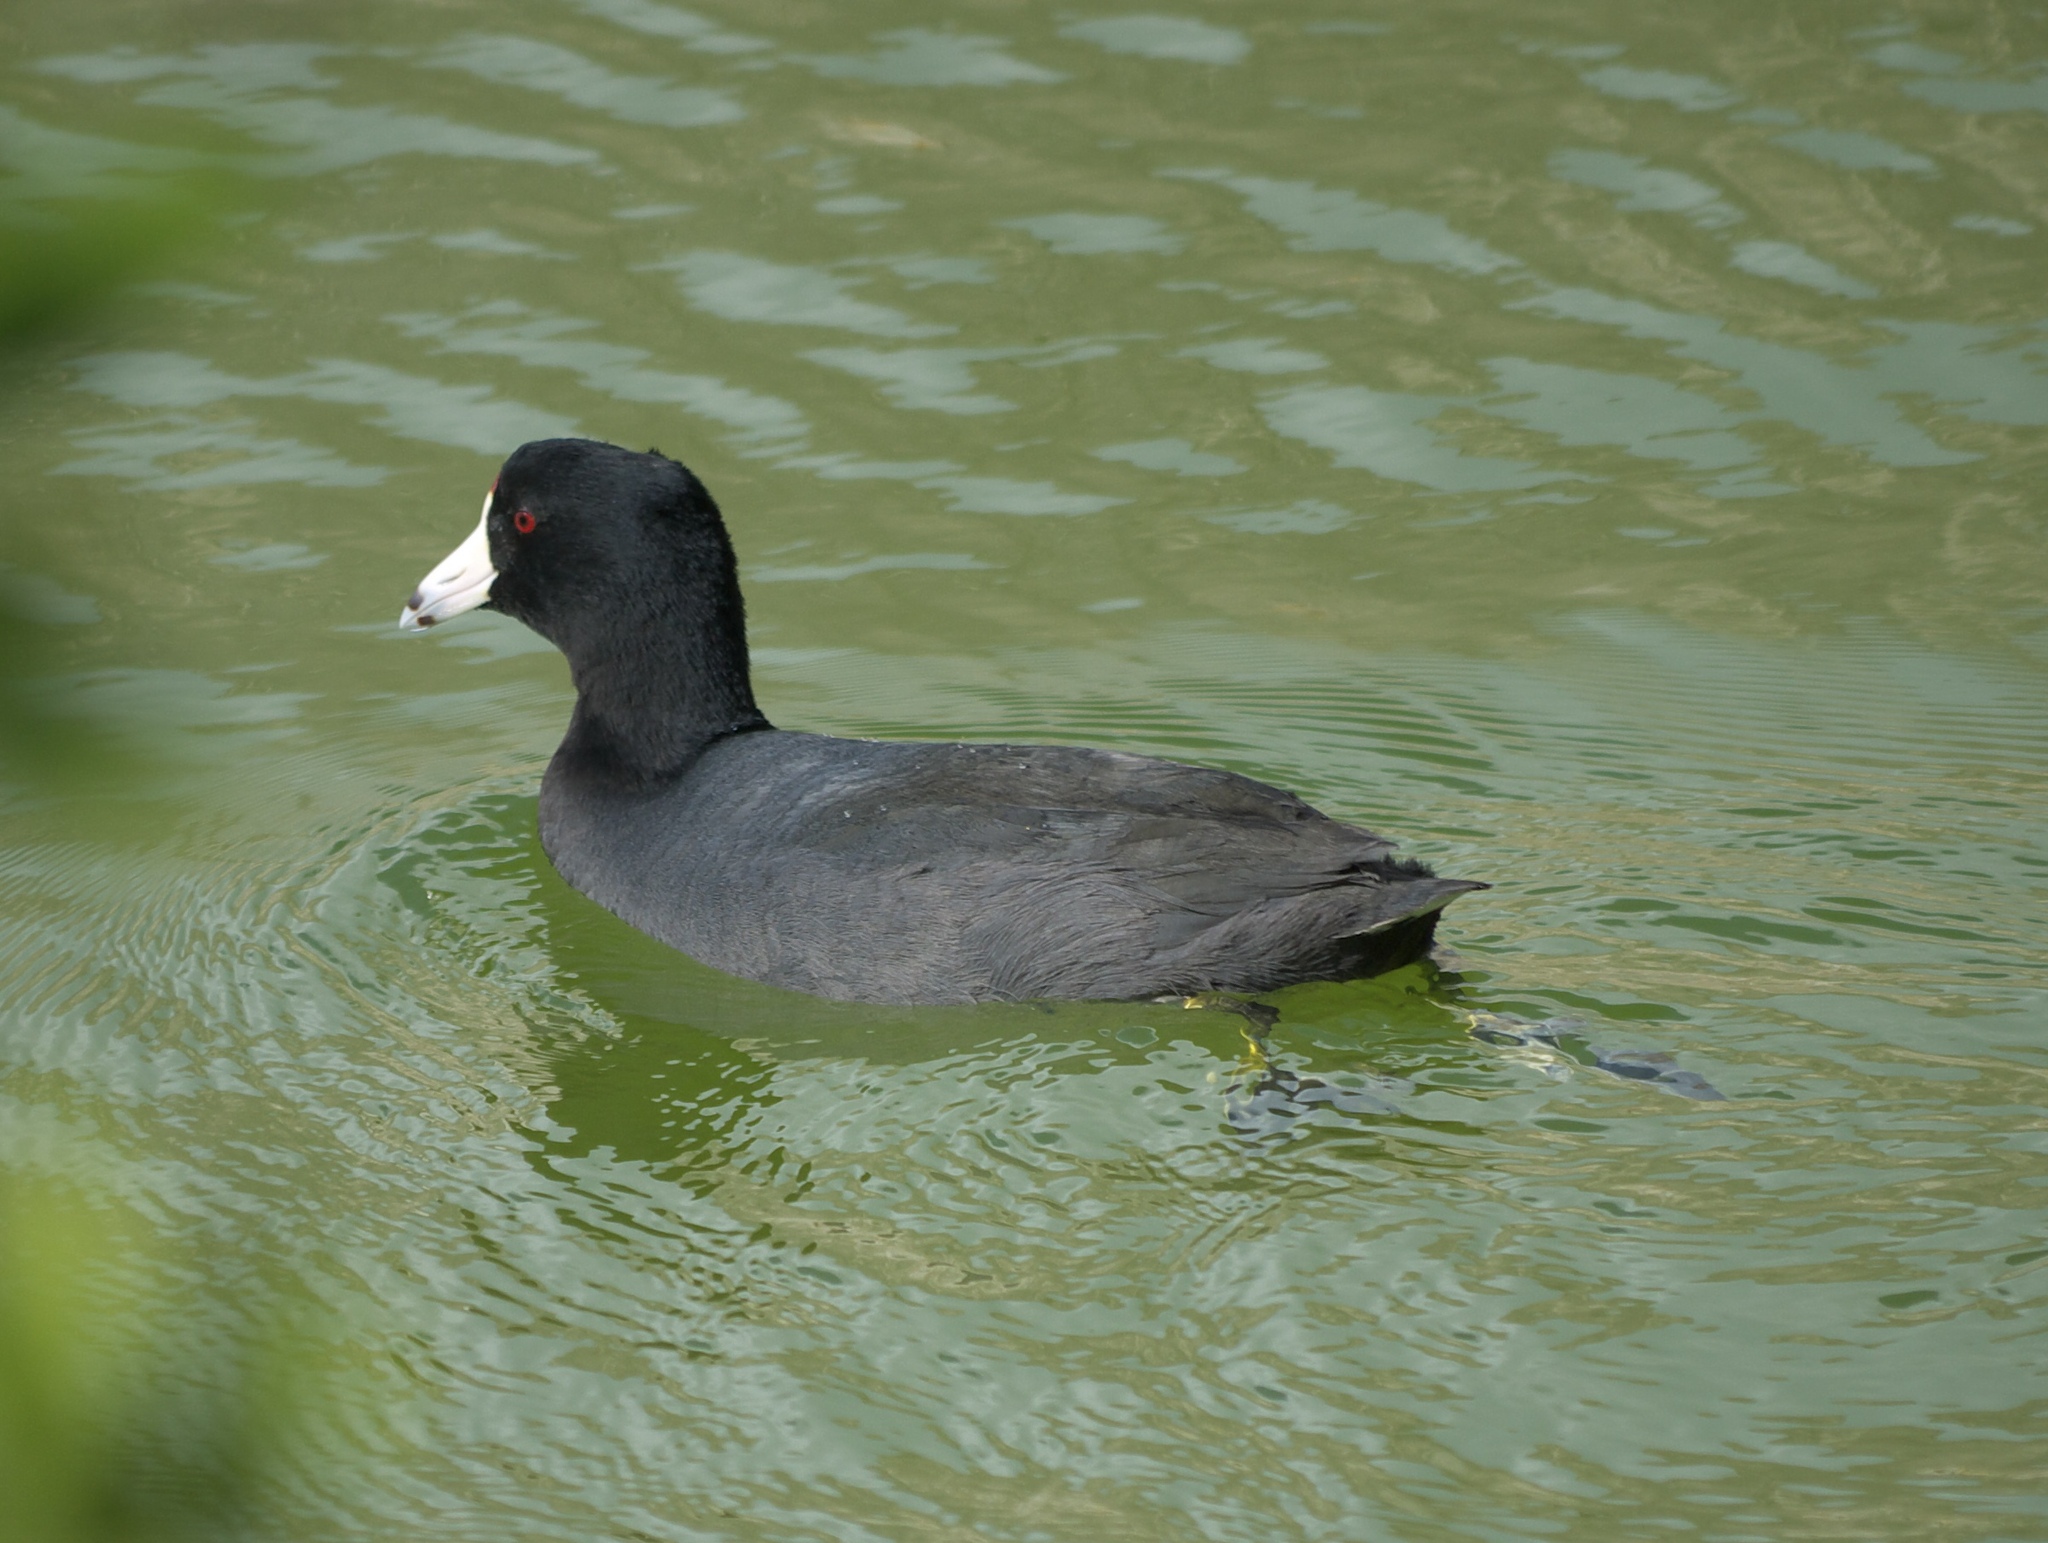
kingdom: Animalia
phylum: Chordata
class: Aves
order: Gruiformes
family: Rallidae
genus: Fulica
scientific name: Fulica americana
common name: American coot
